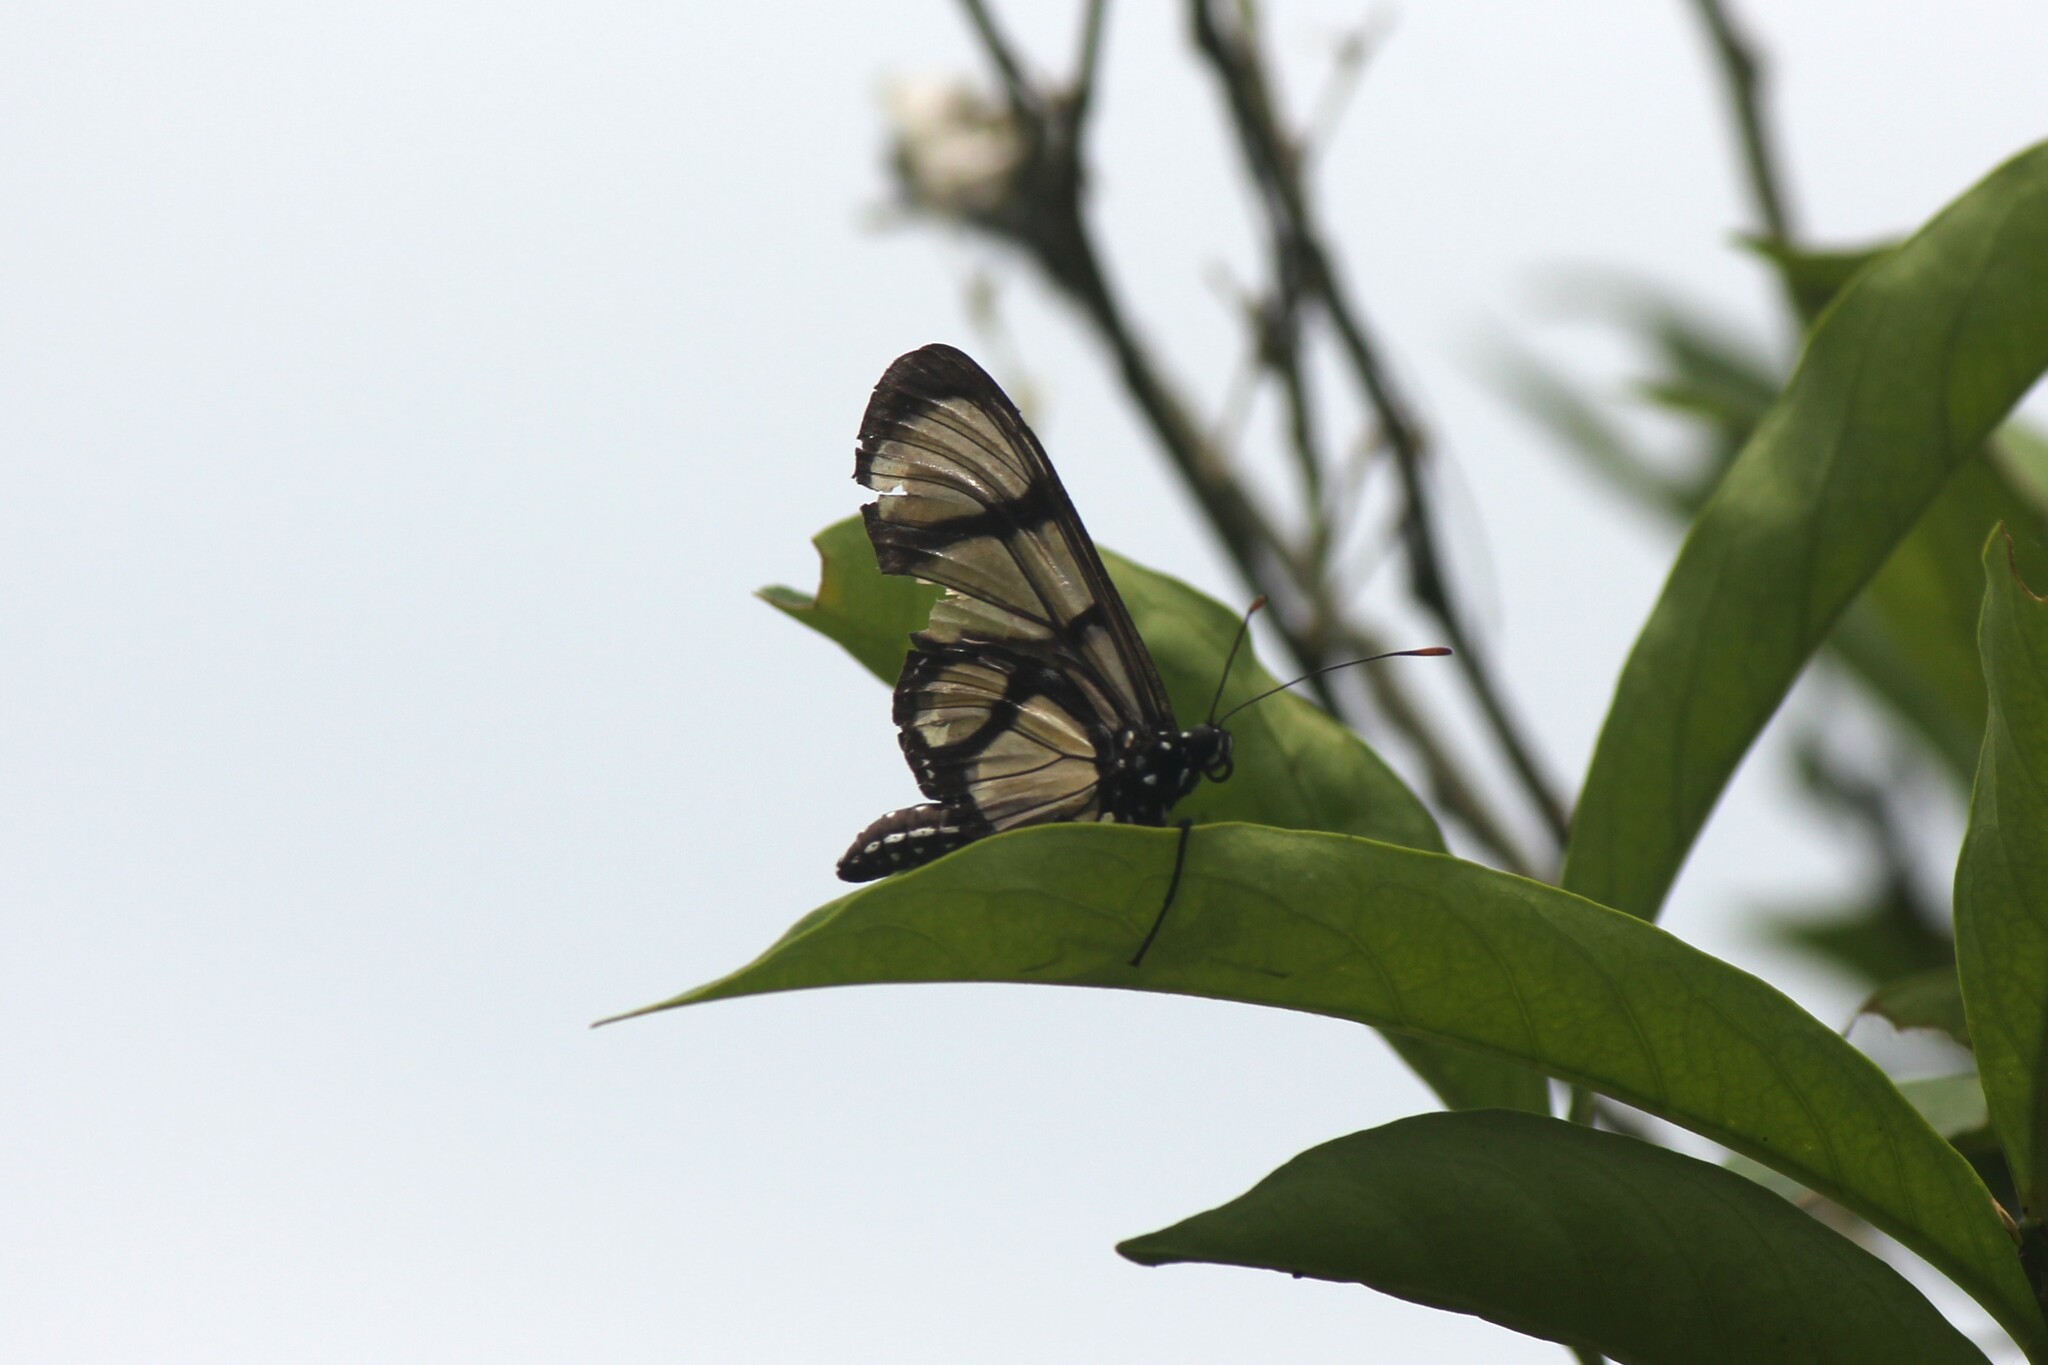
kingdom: Animalia
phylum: Arthropoda
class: Insecta
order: Lepidoptera
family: Nymphalidae
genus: Methona
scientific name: Methona confusa
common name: Confusa tigerwing
